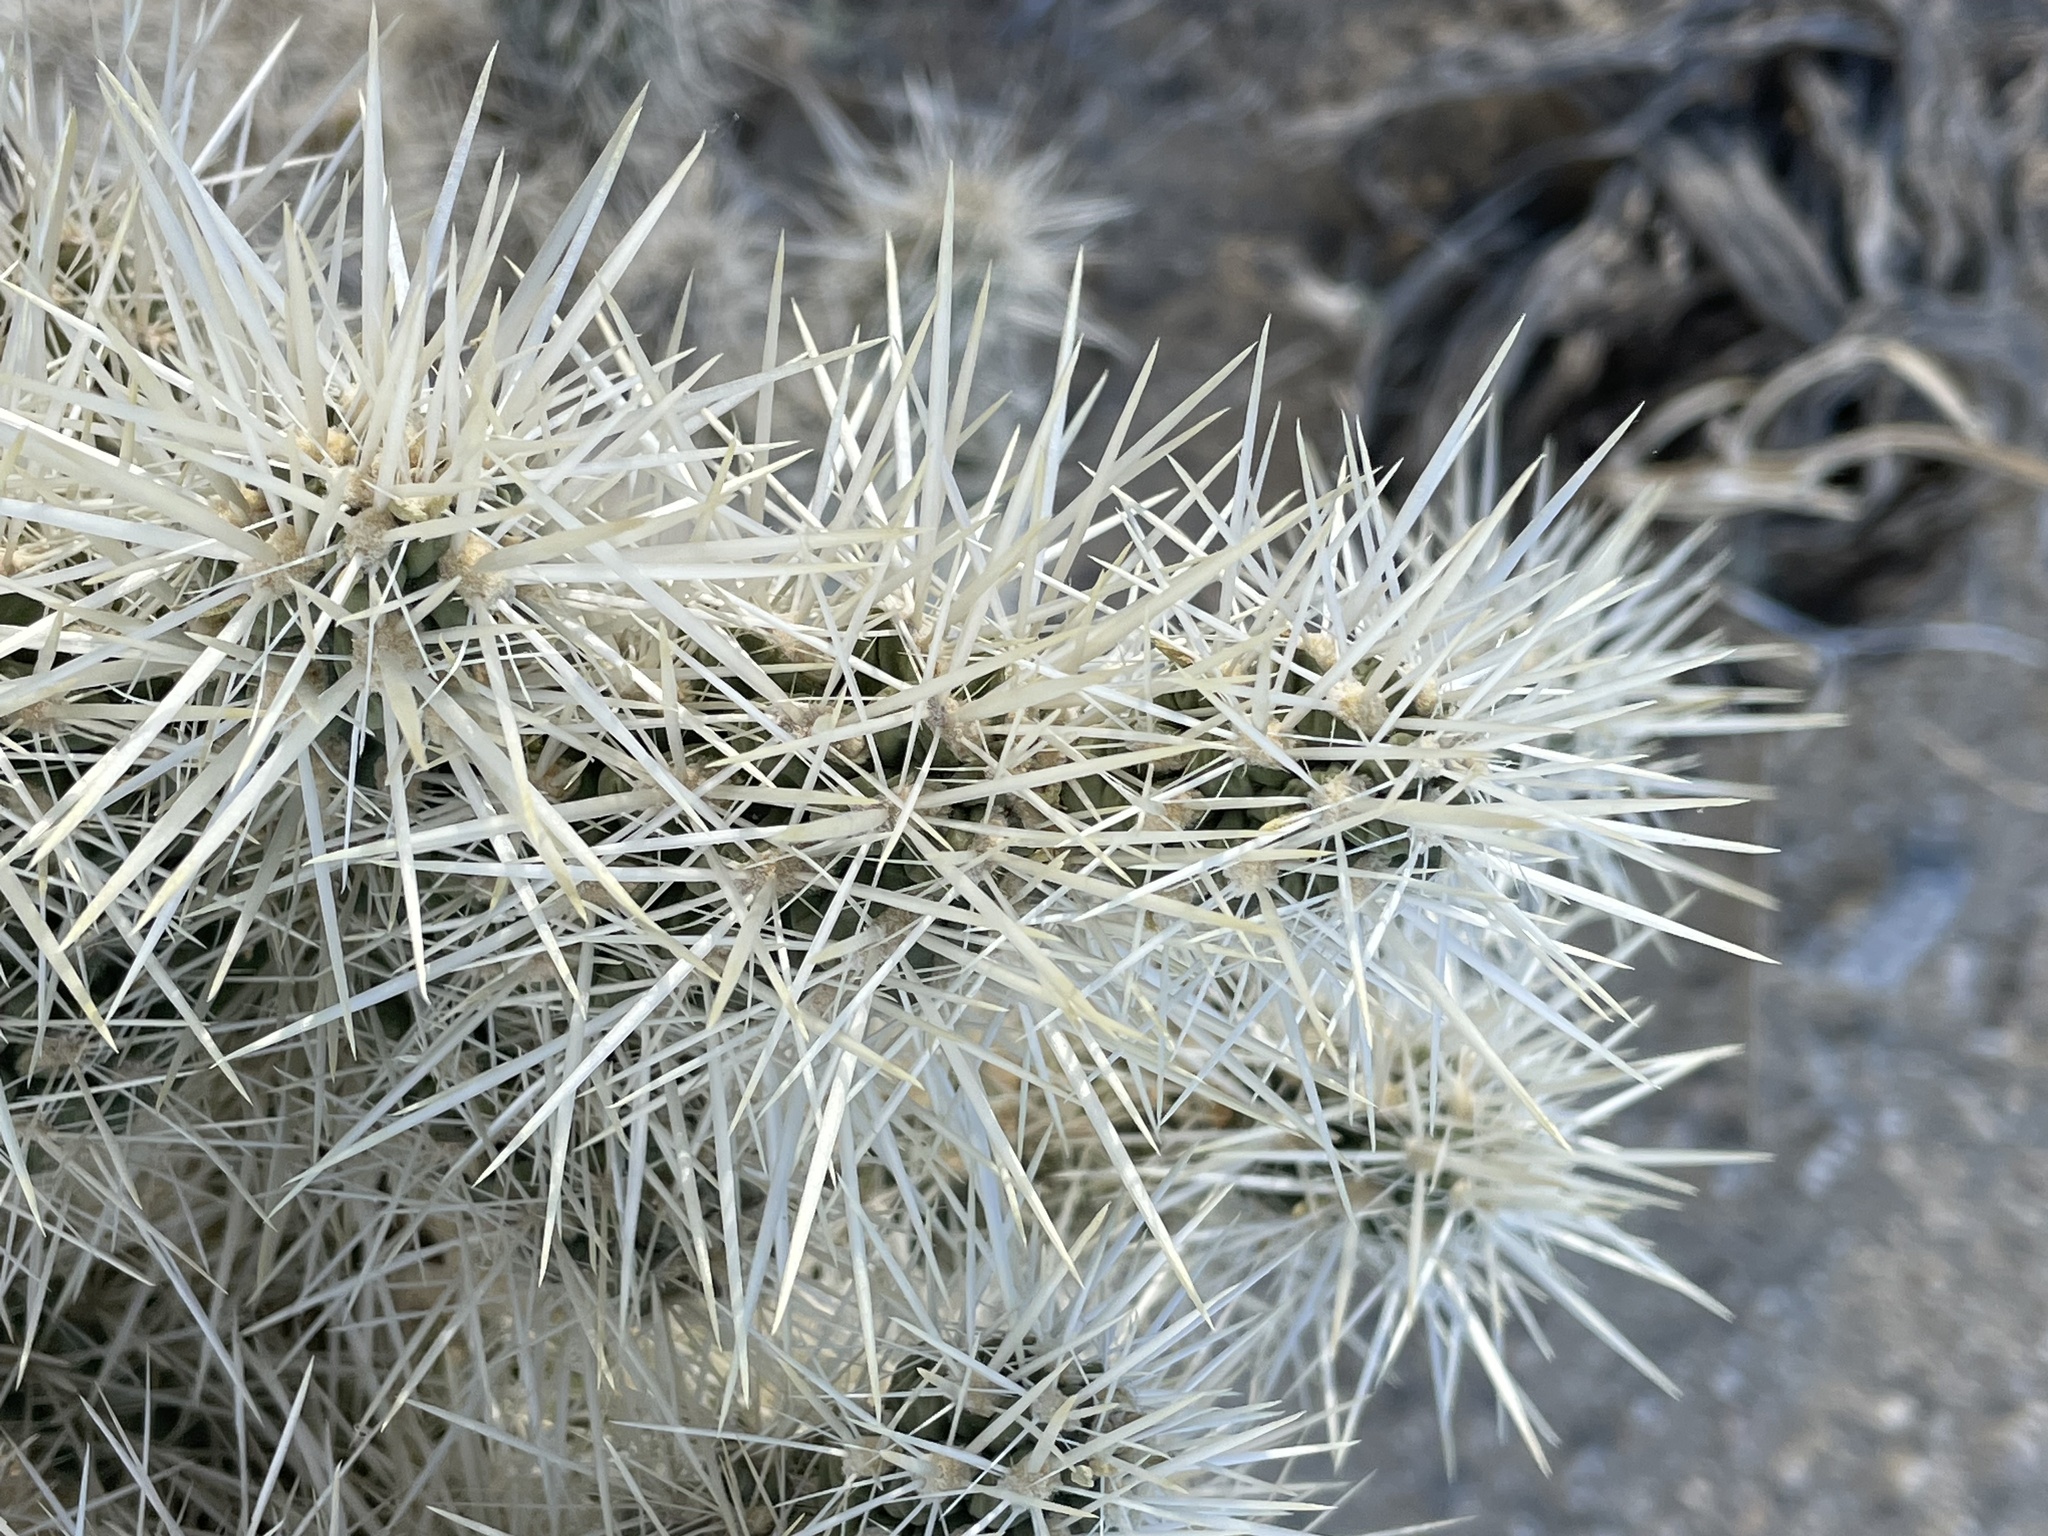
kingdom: Plantae
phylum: Tracheophyta
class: Magnoliopsida
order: Caryophyllales
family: Cactaceae
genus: Cylindropuntia
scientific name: Cylindropuntia echinocarpa
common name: Ground cholla
